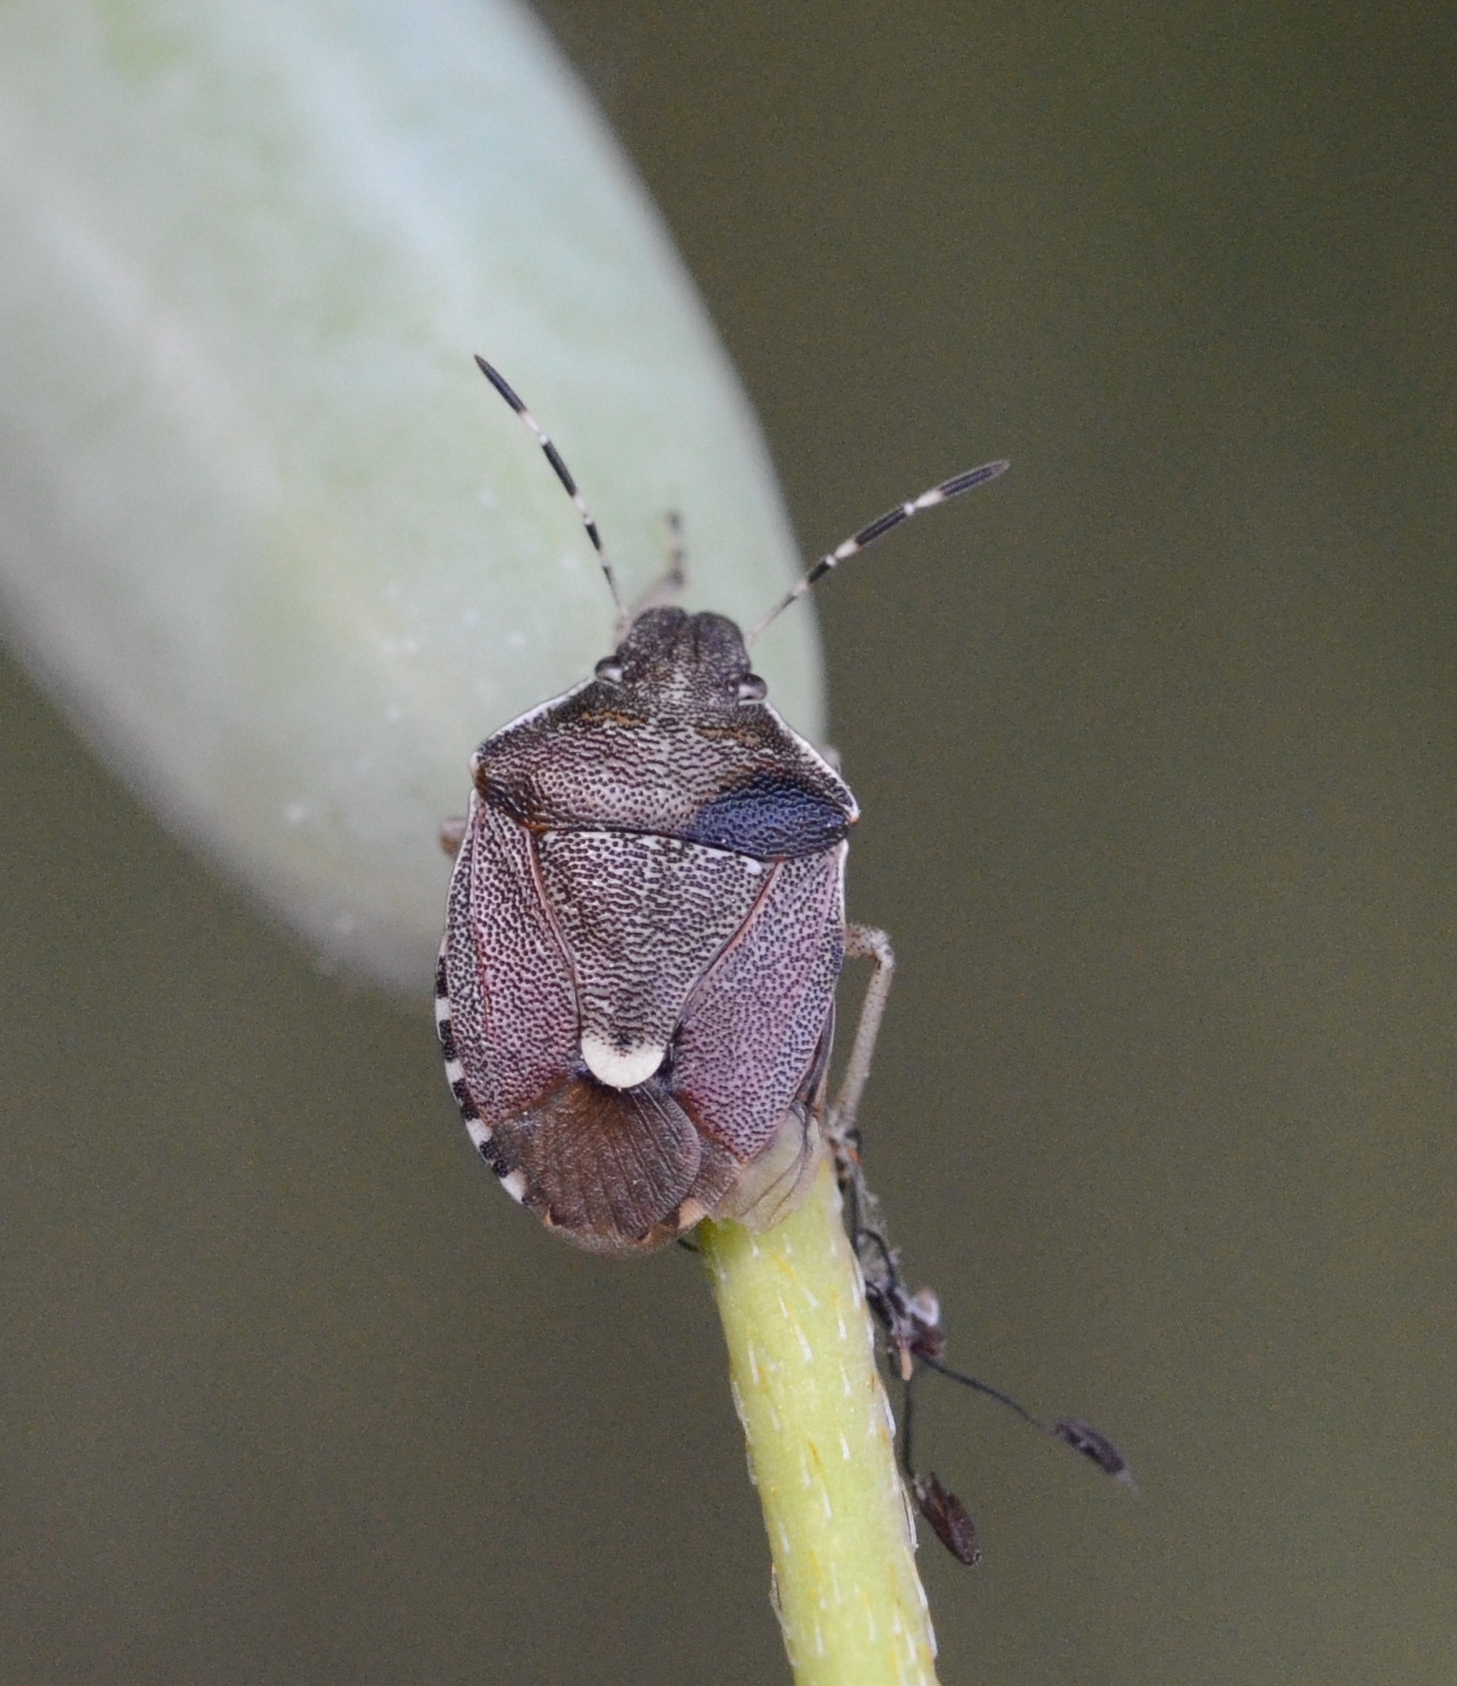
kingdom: Animalia
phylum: Arthropoda
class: Insecta
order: Hemiptera
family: Pentatomidae
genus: Holcostethus
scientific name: Holcostethus sphacelatus
